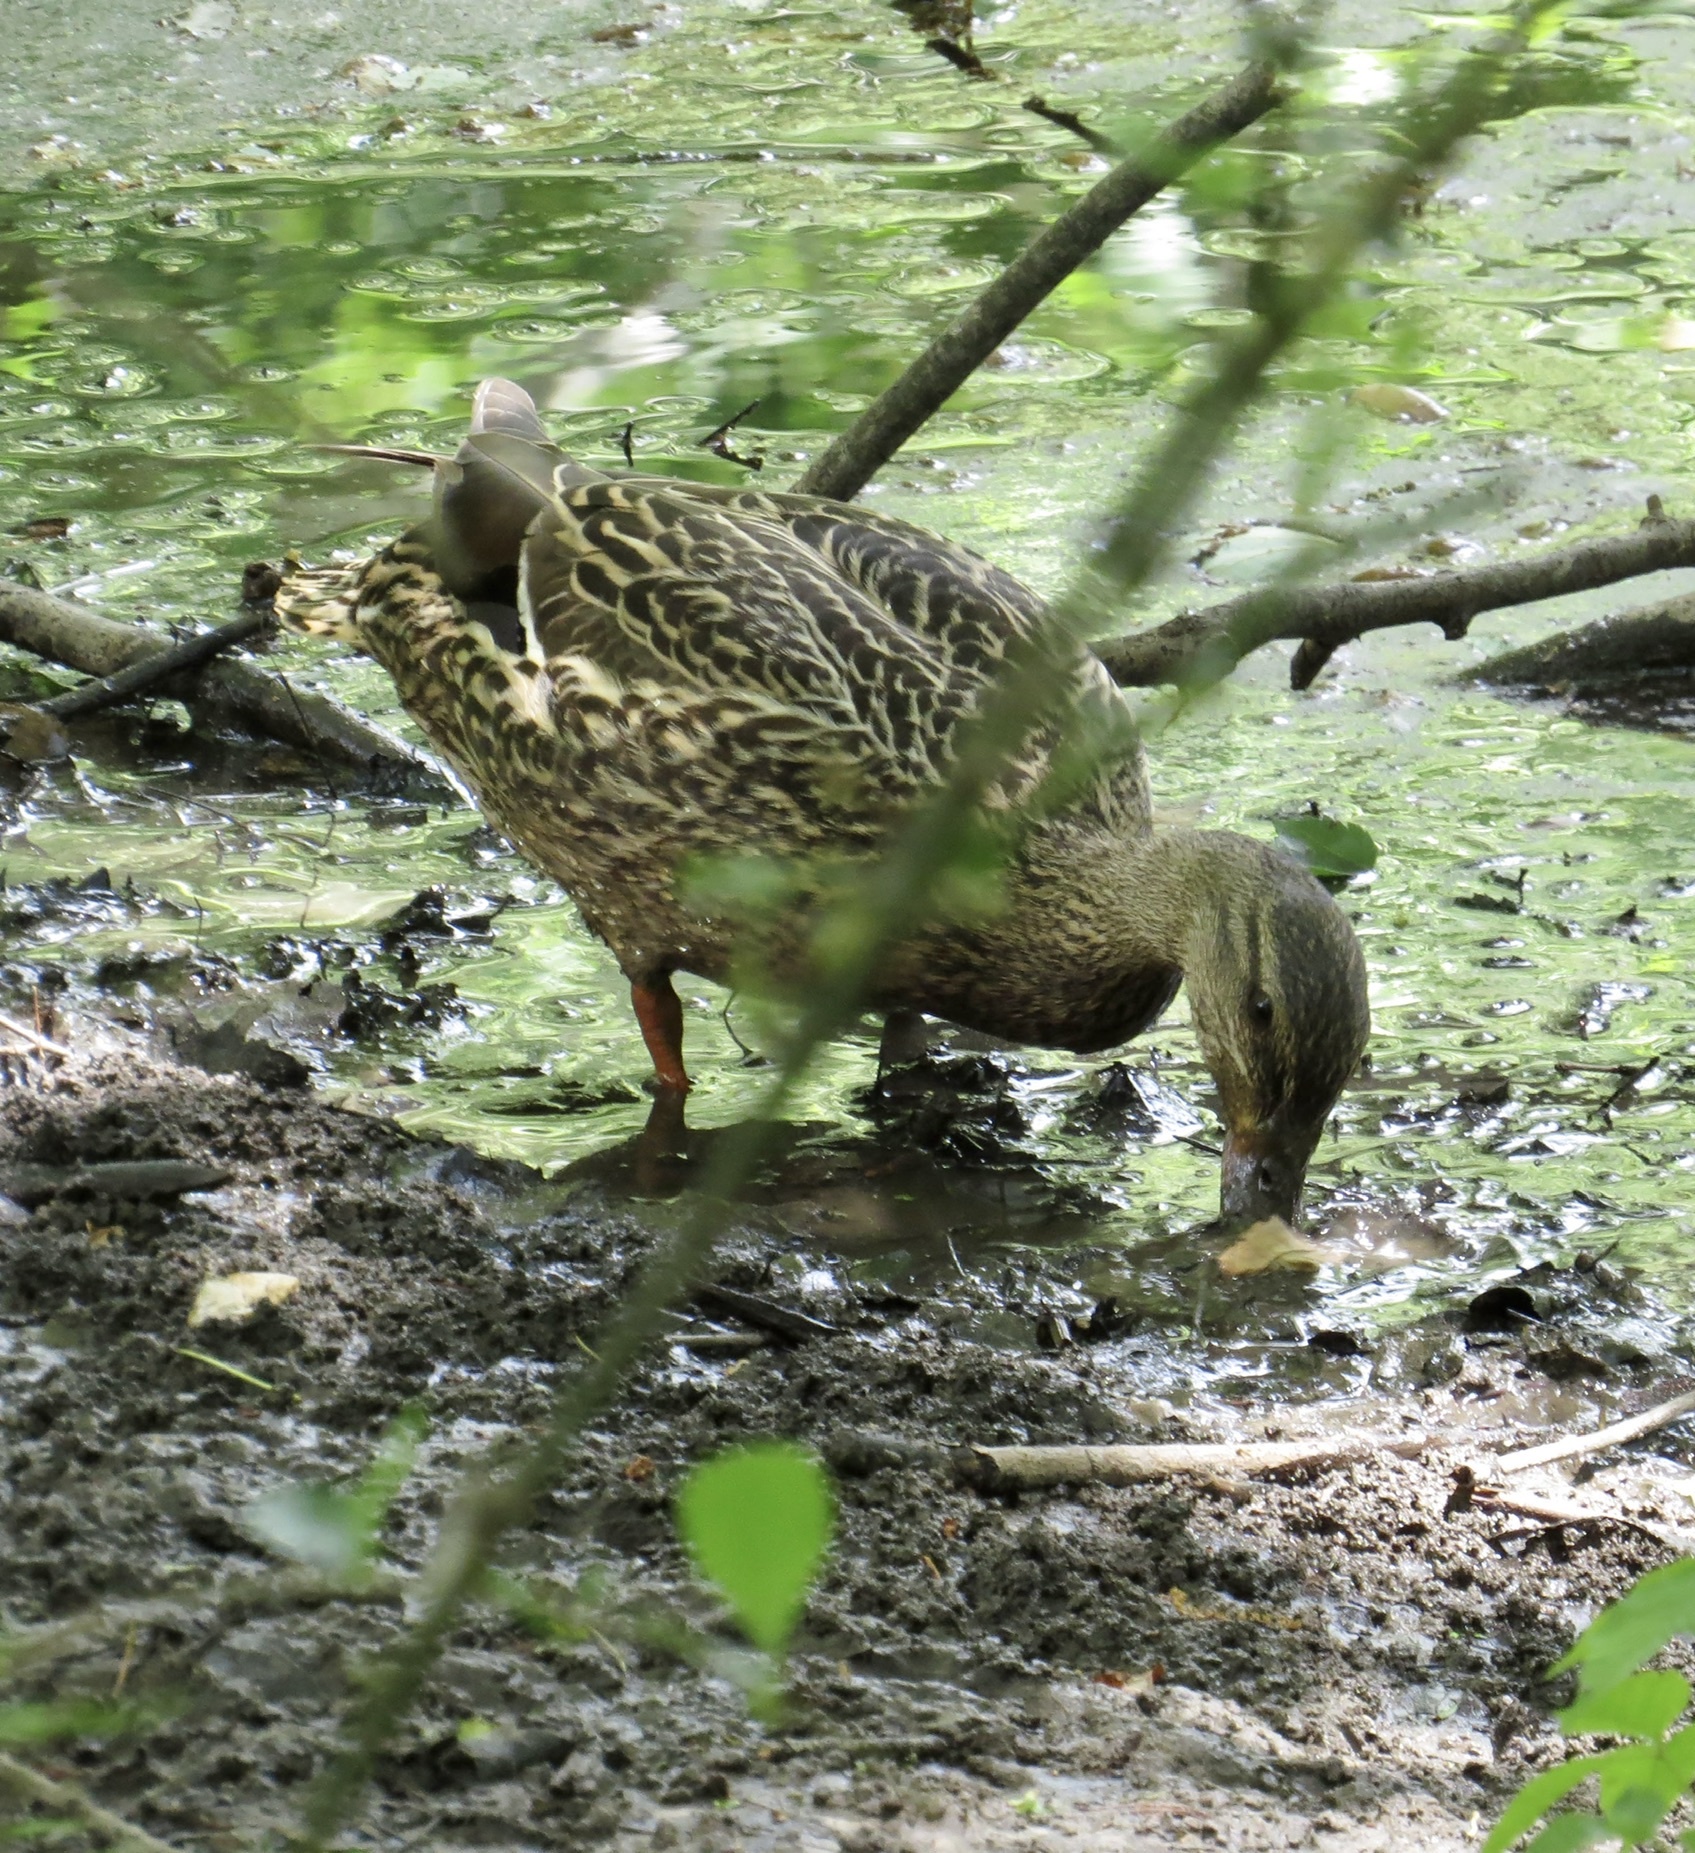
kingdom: Animalia
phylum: Chordata
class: Aves
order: Anseriformes
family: Anatidae
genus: Anas
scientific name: Anas platyrhynchos
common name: Mallard
